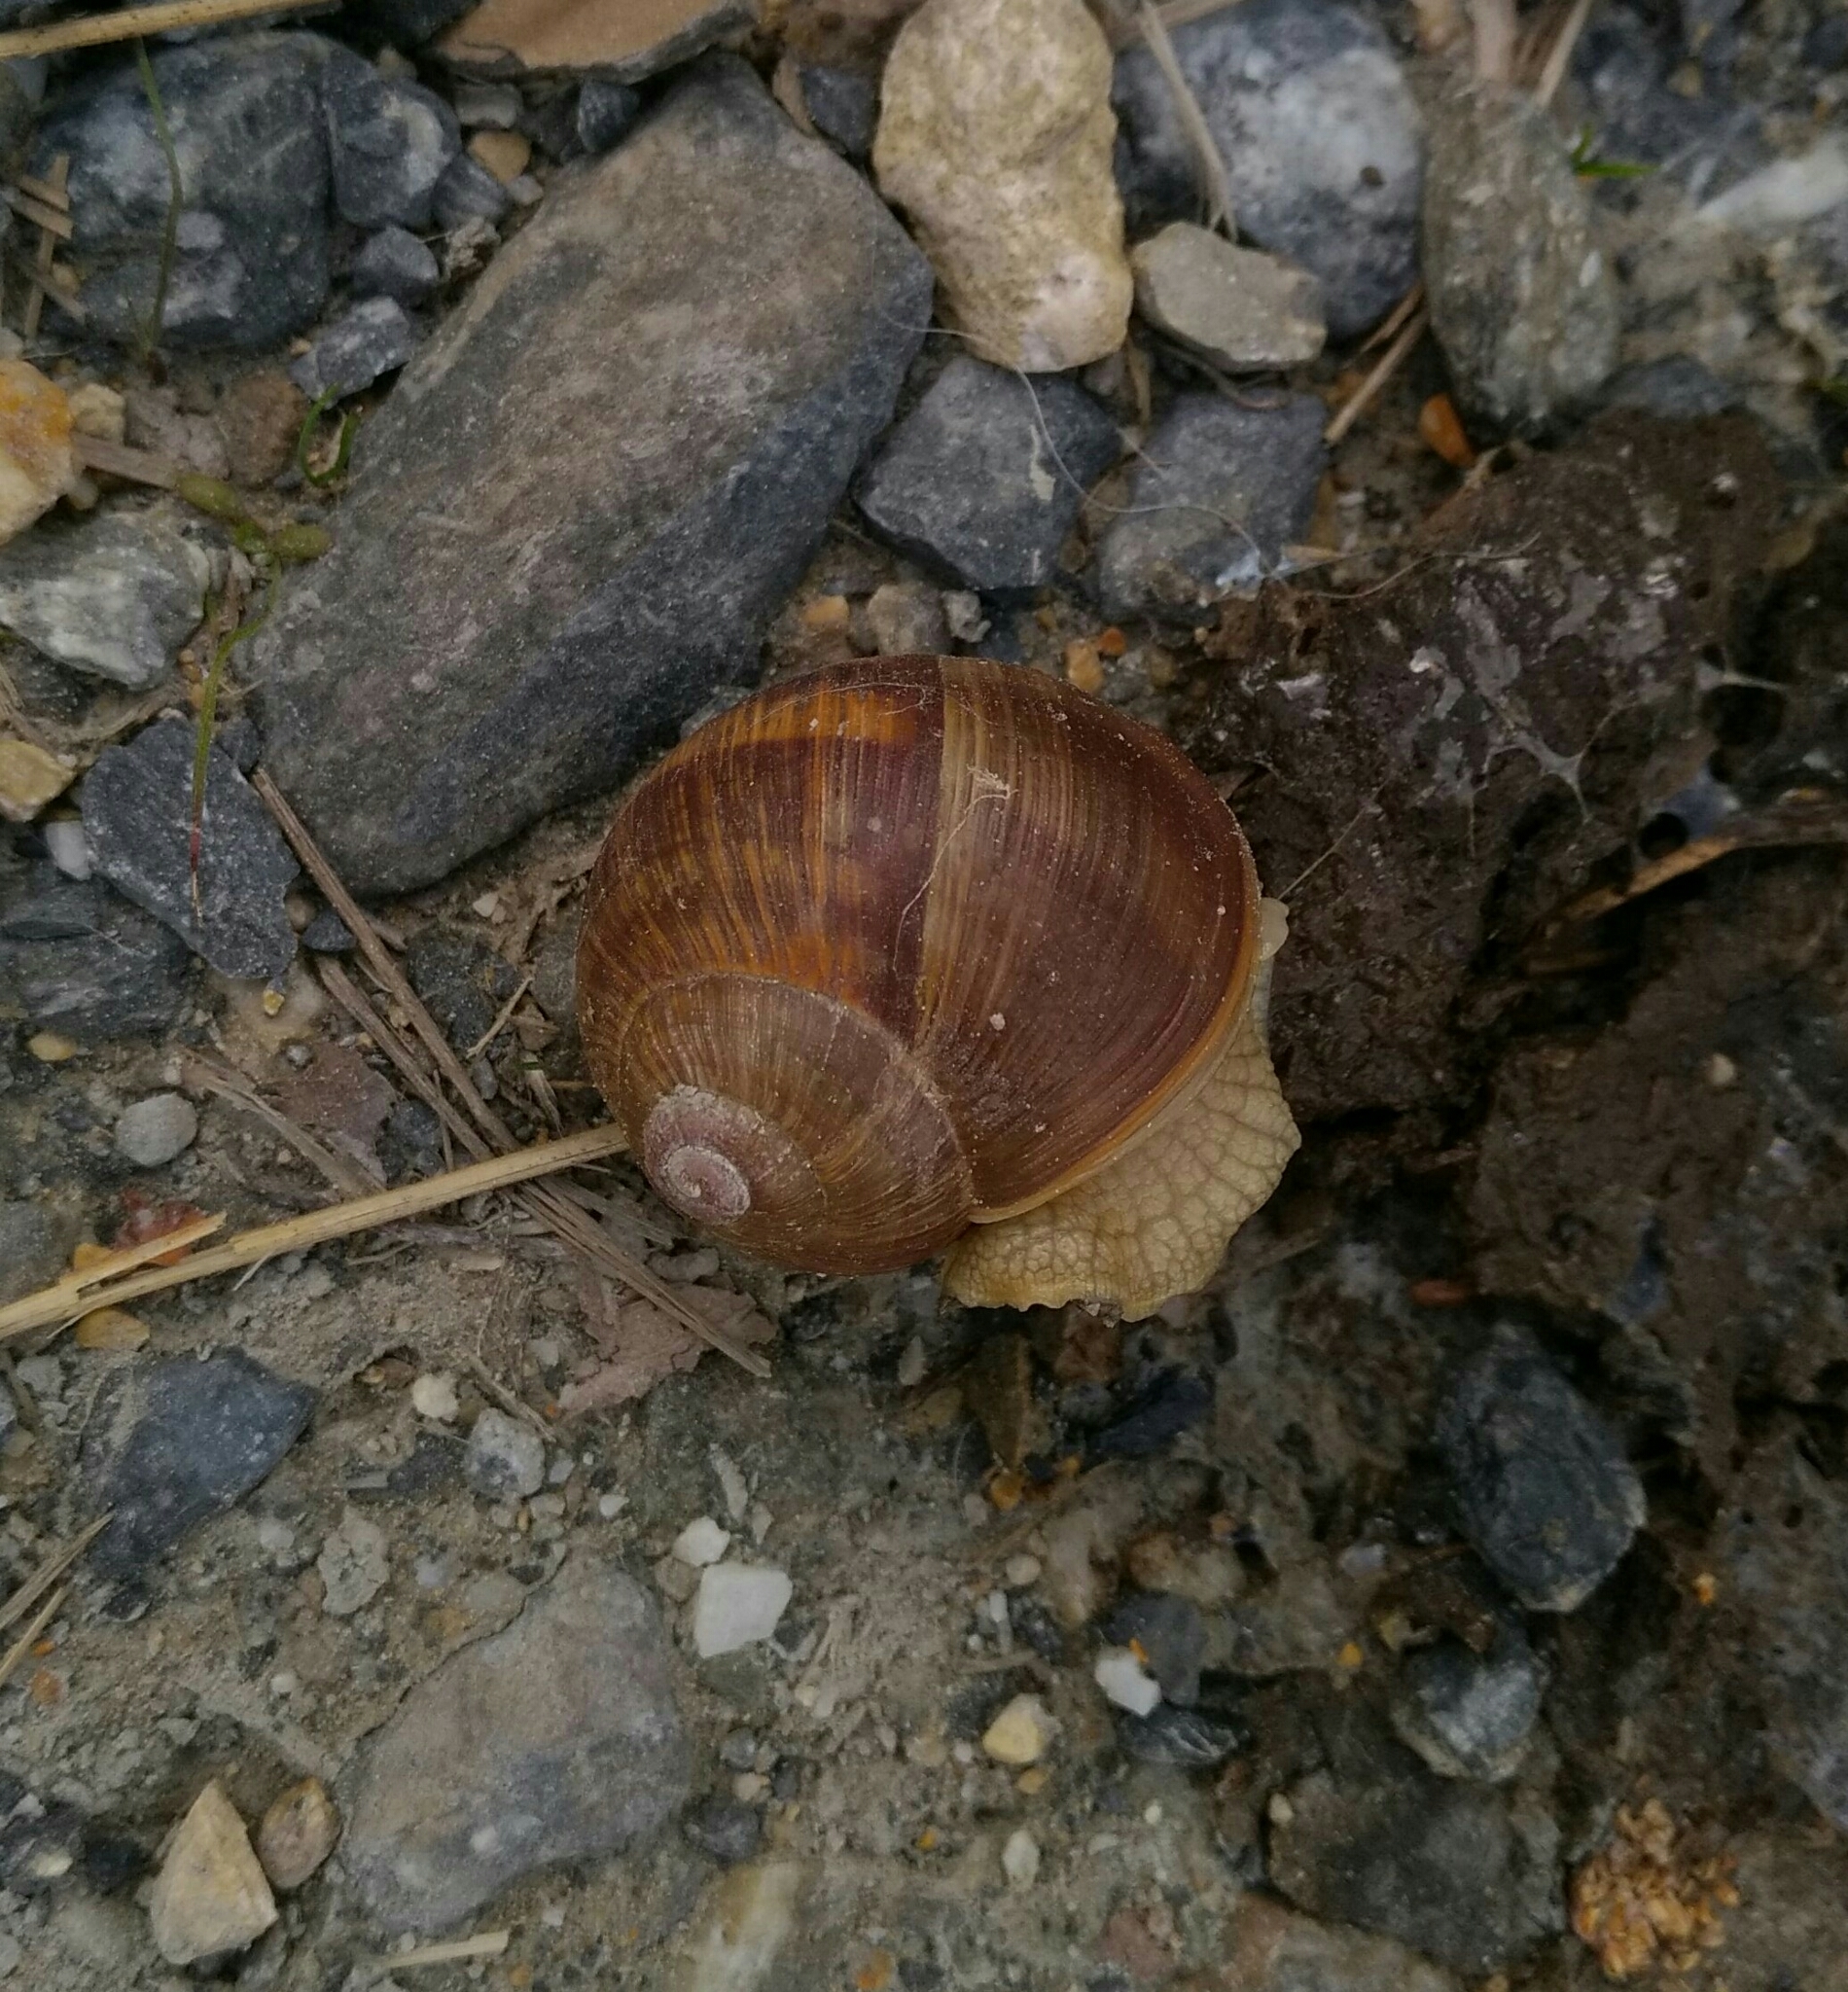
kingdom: Animalia
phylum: Mollusca
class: Gastropoda
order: Stylommatophora
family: Helicidae
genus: Helix
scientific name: Helix pomatia
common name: Roman snail
